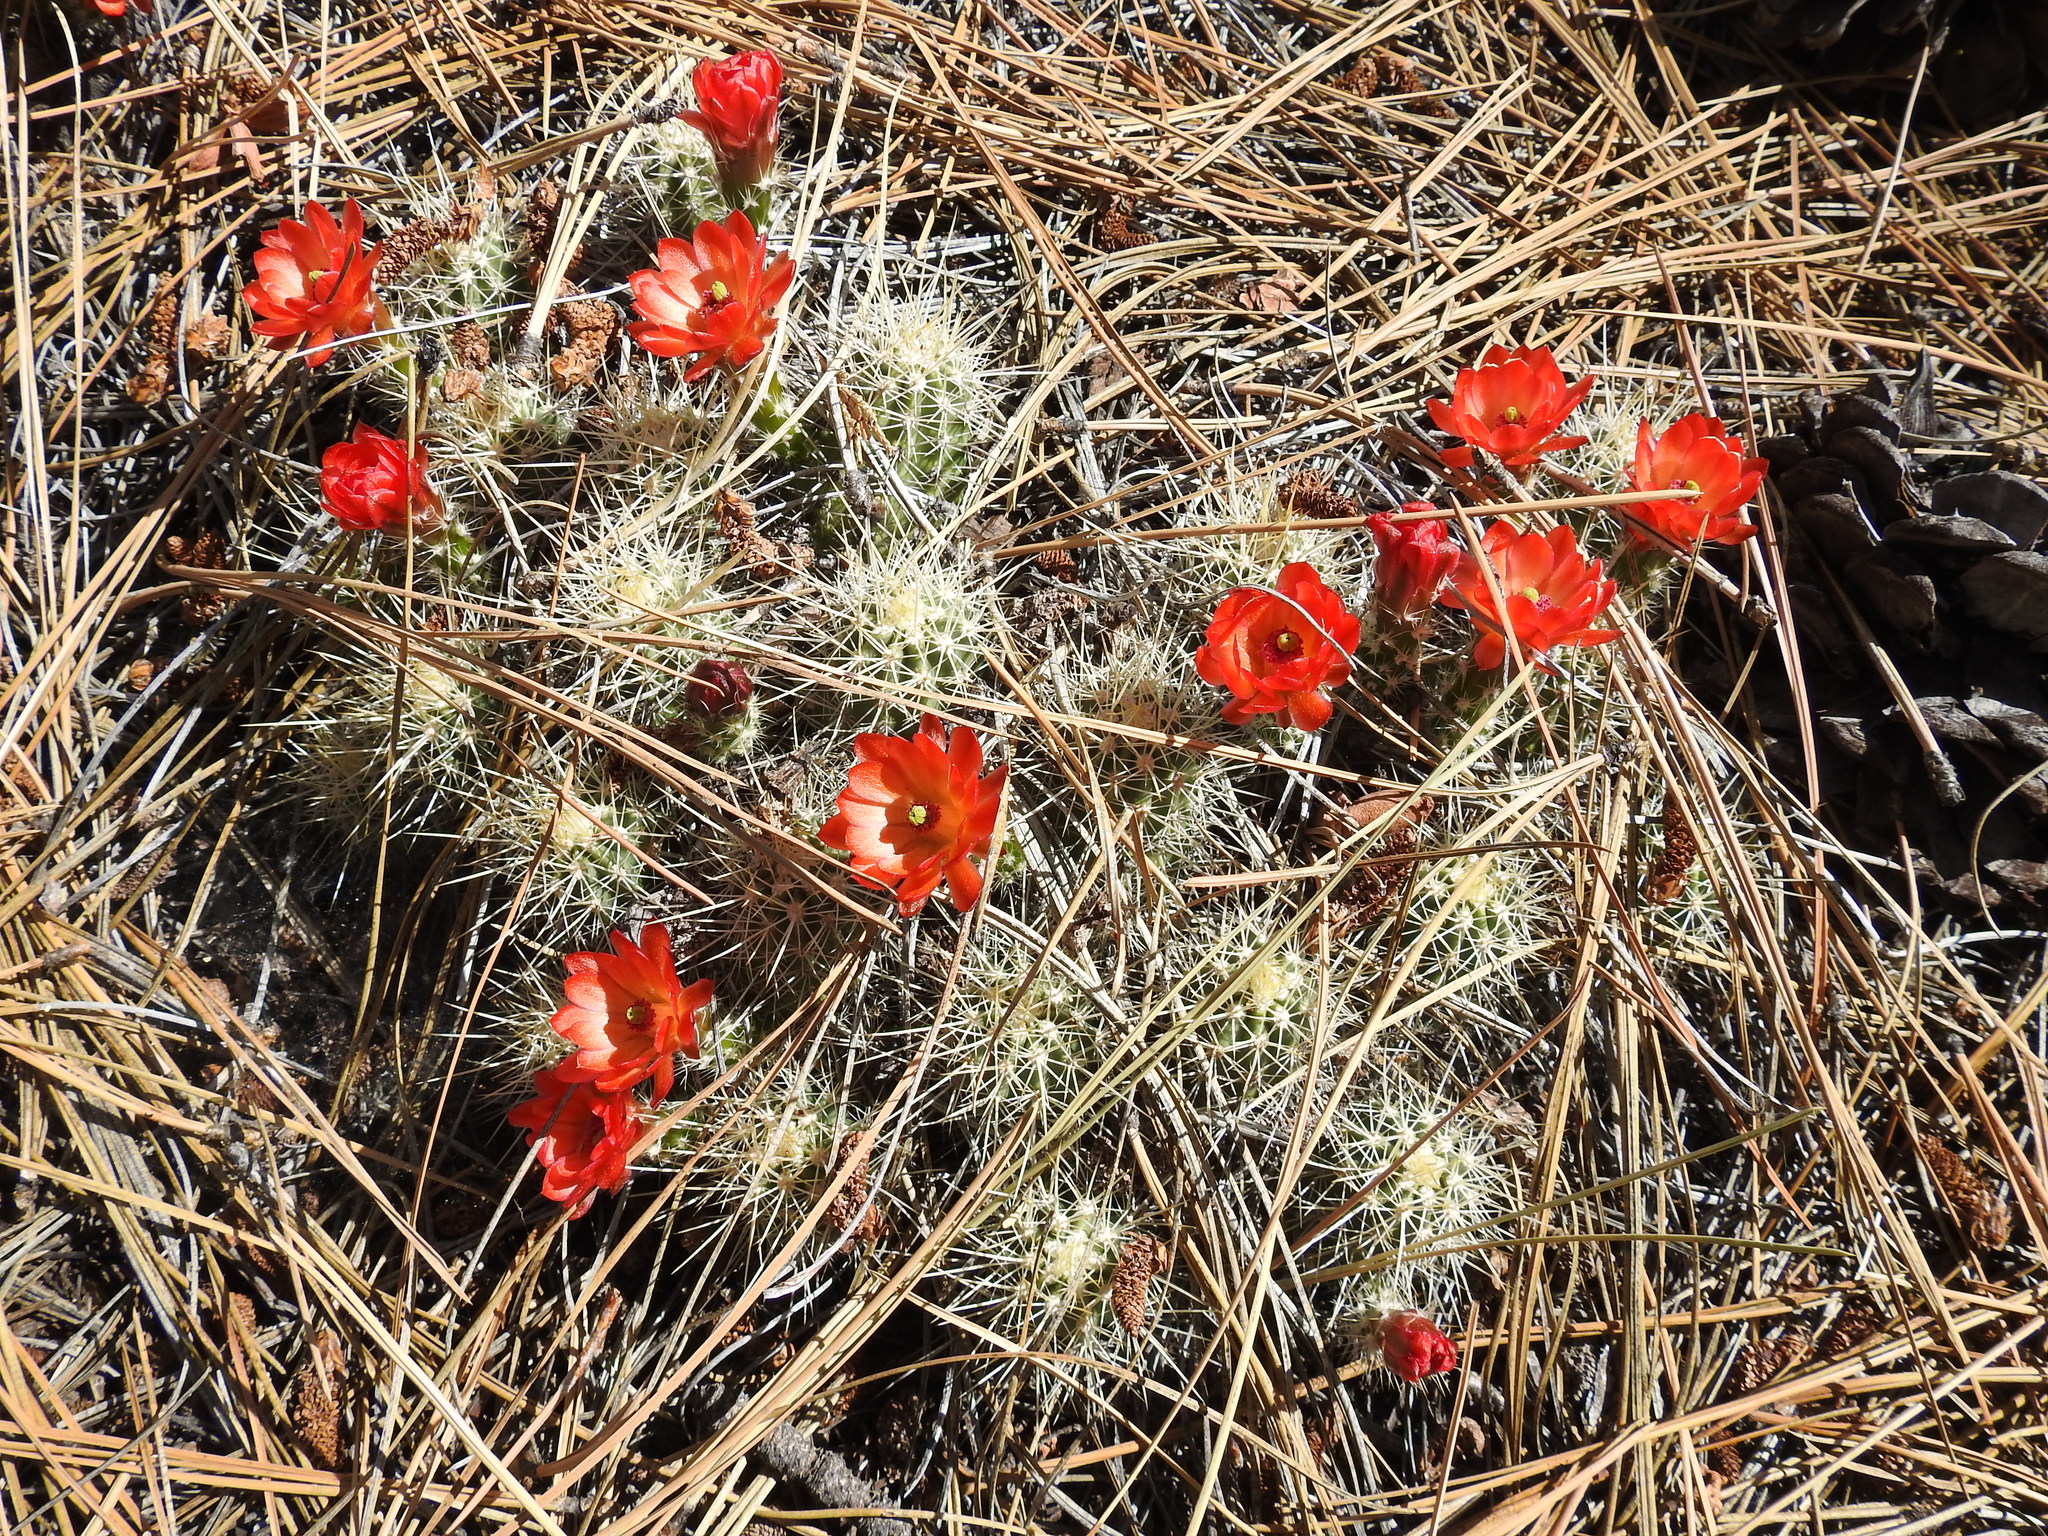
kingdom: Plantae
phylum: Tracheophyta
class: Magnoliopsida
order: Caryophyllales
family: Cactaceae
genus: Echinocereus
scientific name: Echinocereus pacificus
